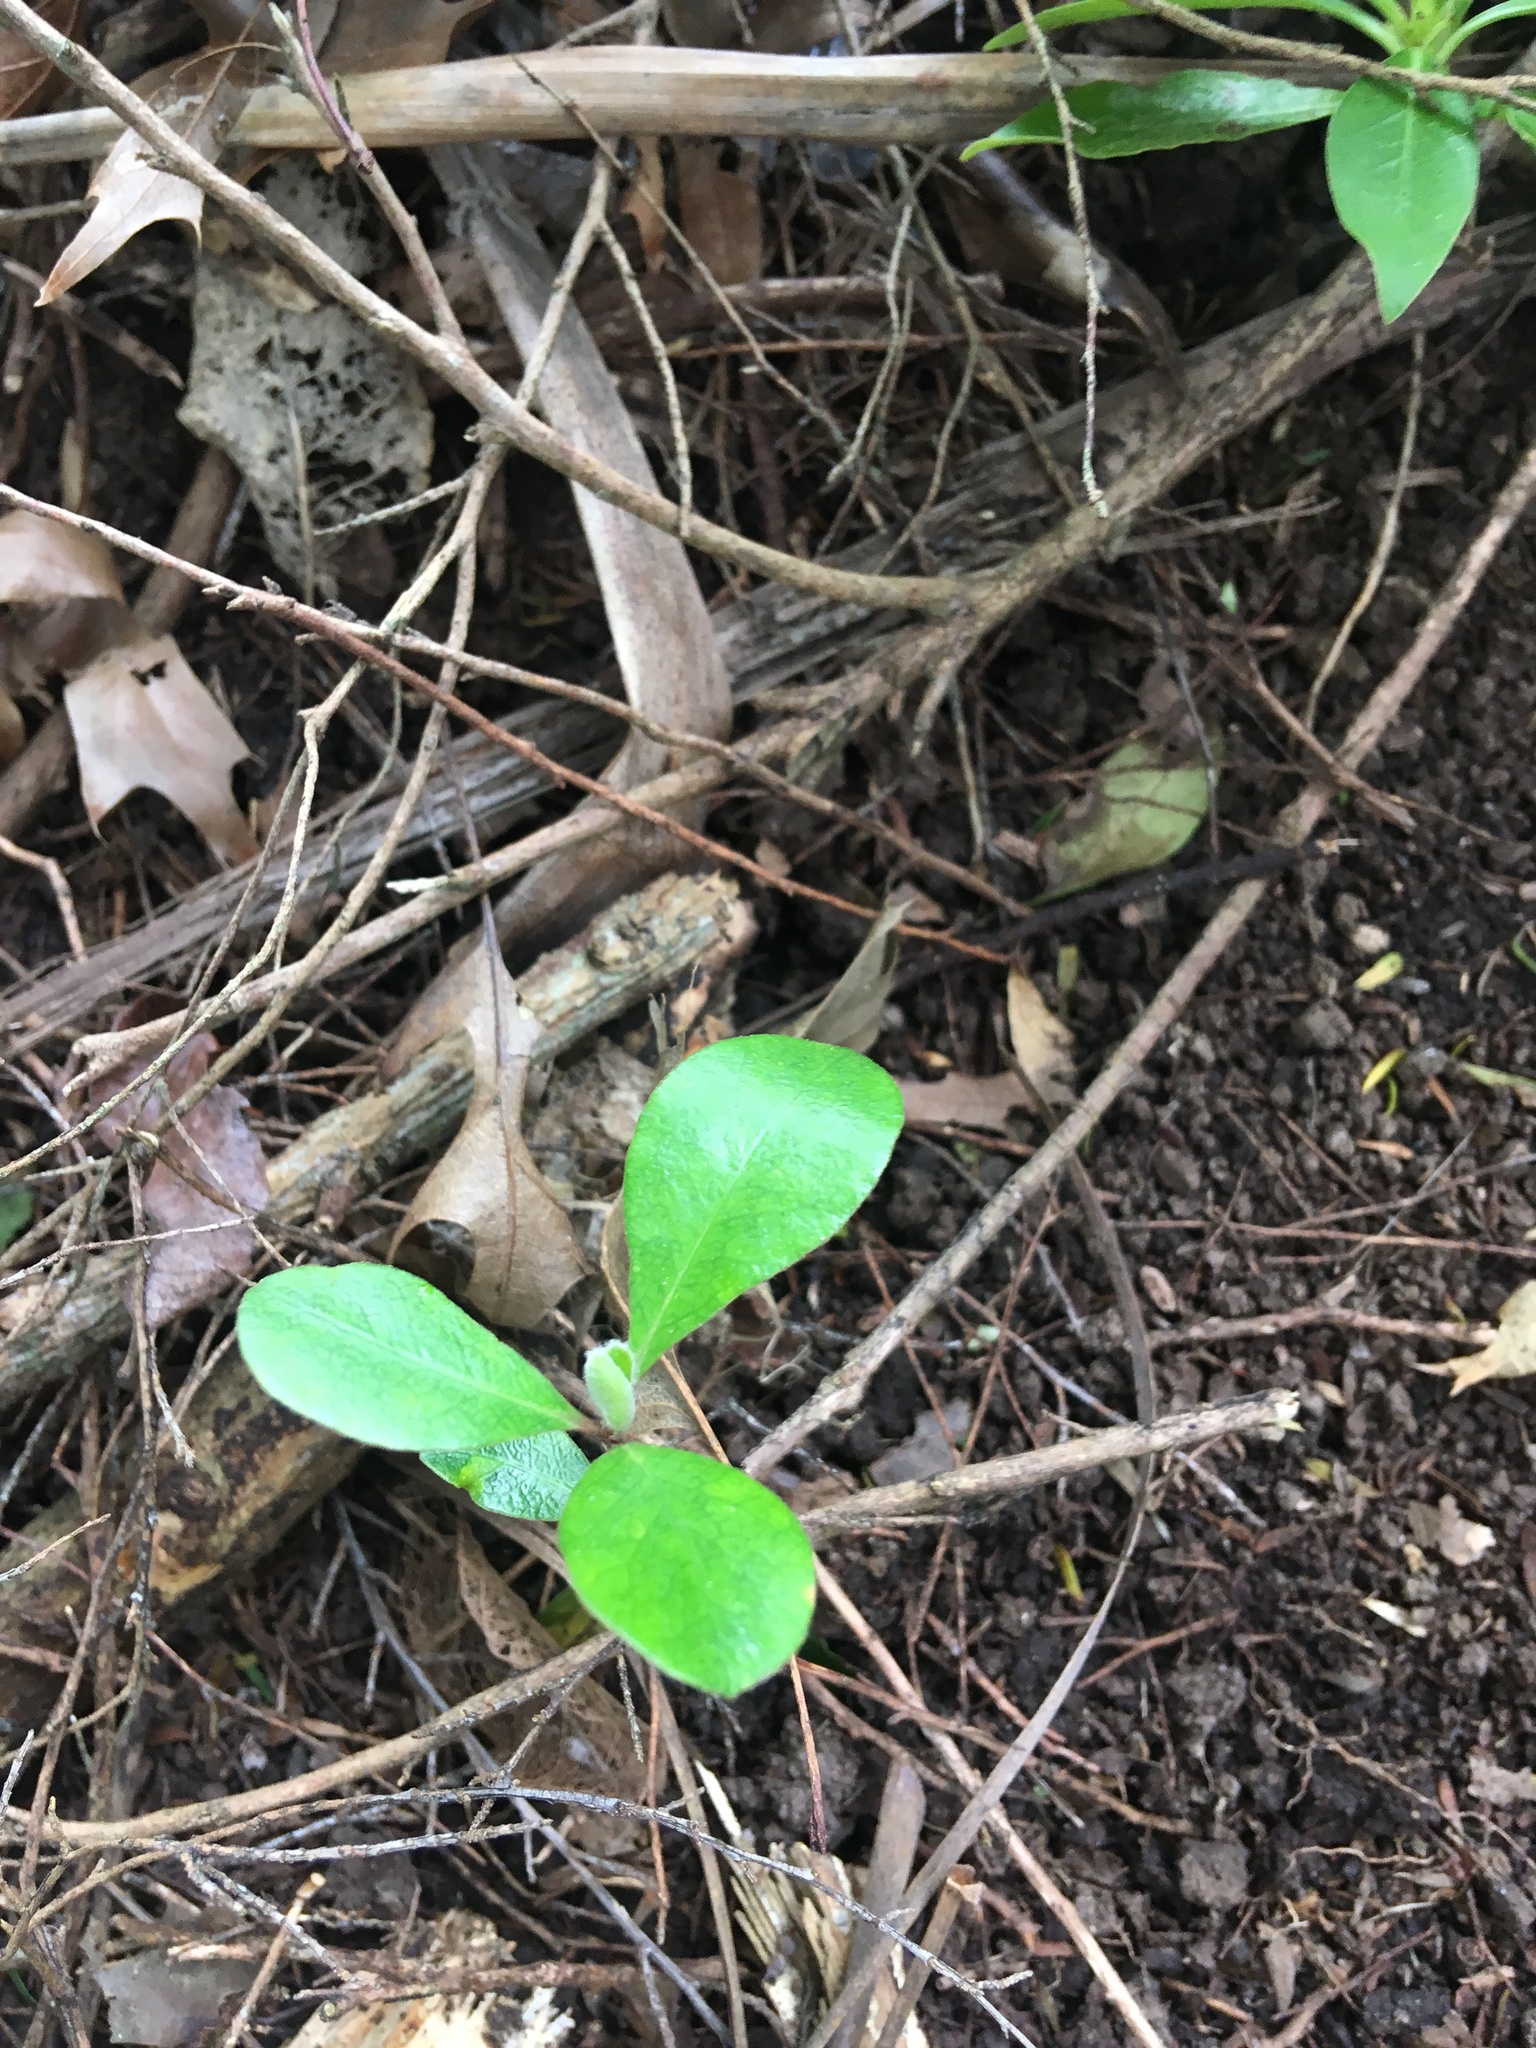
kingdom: Plantae
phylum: Tracheophyta
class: Magnoliopsida
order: Apiales
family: Pittosporaceae
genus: Pittosporum
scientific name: Pittosporum crassifolium
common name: Karo
